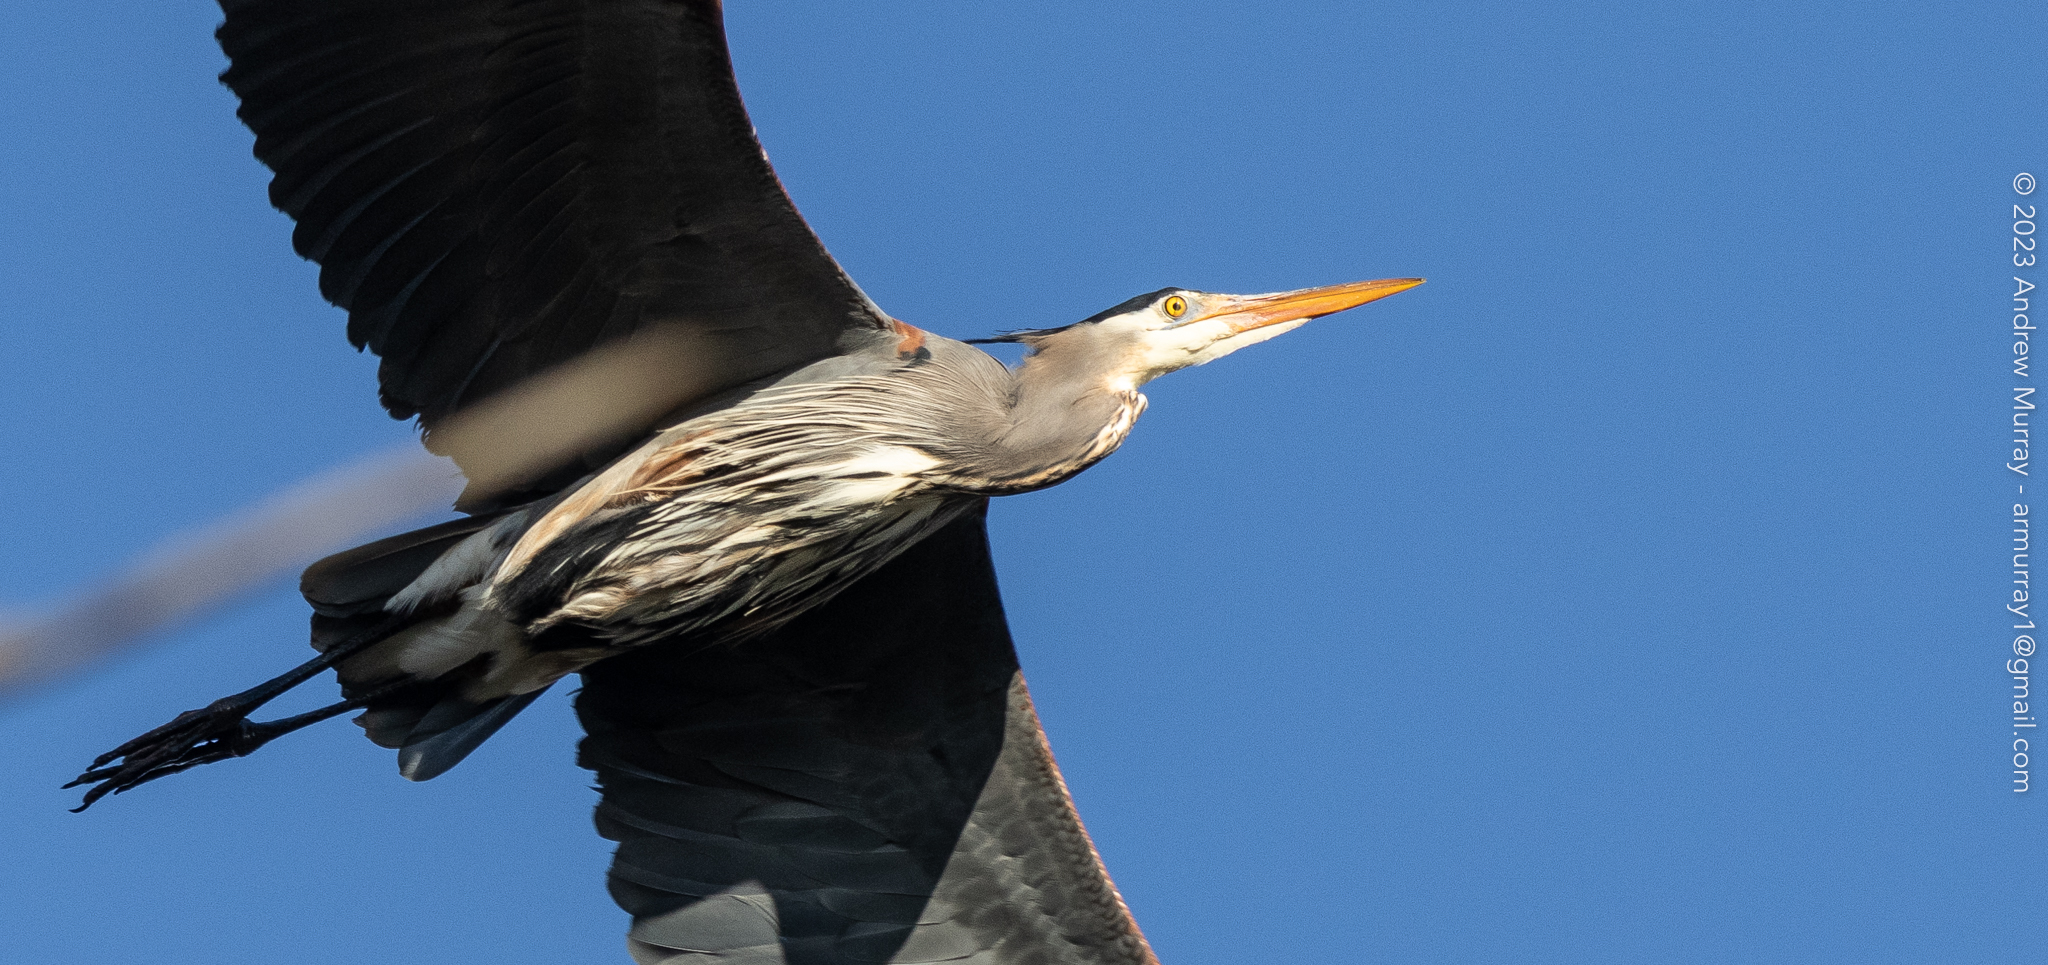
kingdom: Animalia
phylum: Chordata
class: Aves
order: Pelecaniformes
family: Ardeidae
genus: Ardea
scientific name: Ardea herodias
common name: Great blue heron
